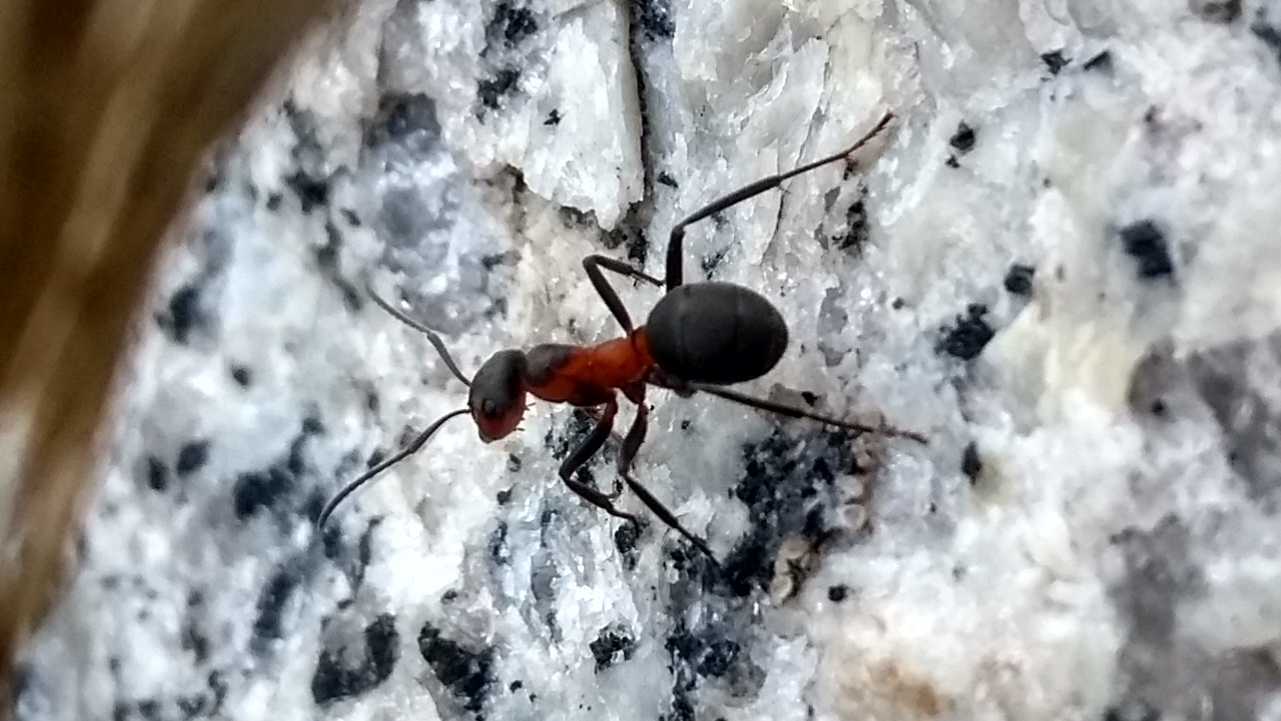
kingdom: Animalia
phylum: Arthropoda
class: Insecta
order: Hymenoptera
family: Formicidae
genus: Formica
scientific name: Formica
